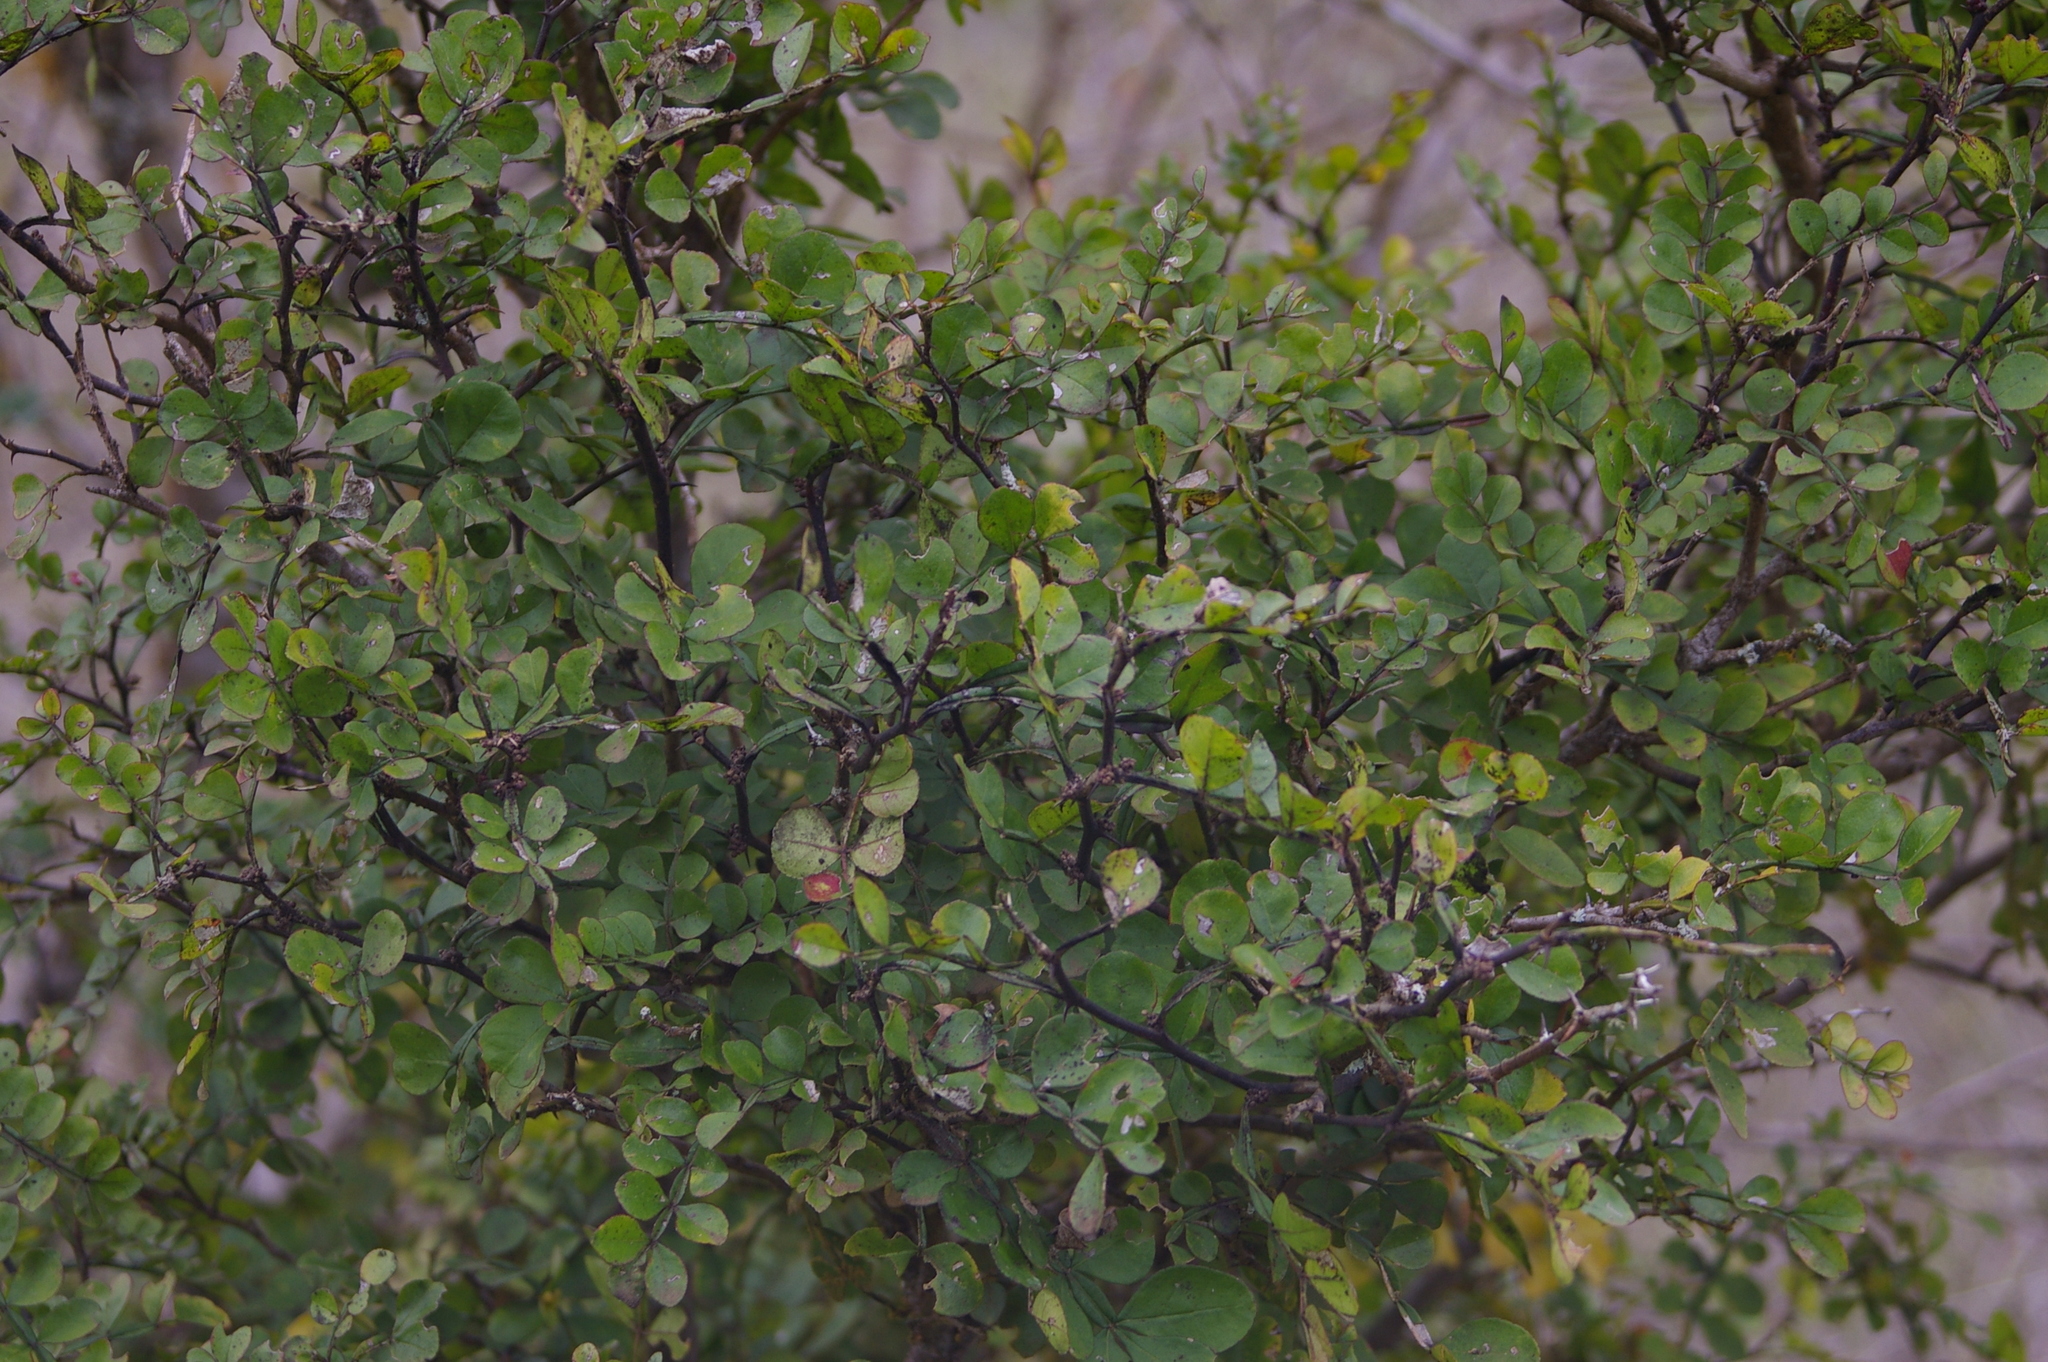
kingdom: Plantae
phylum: Tracheophyta
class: Magnoliopsida
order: Sapindales
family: Rutaceae
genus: Zanthoxylum
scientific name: Zanthoxylum fagara
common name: Lime prickly-ash
